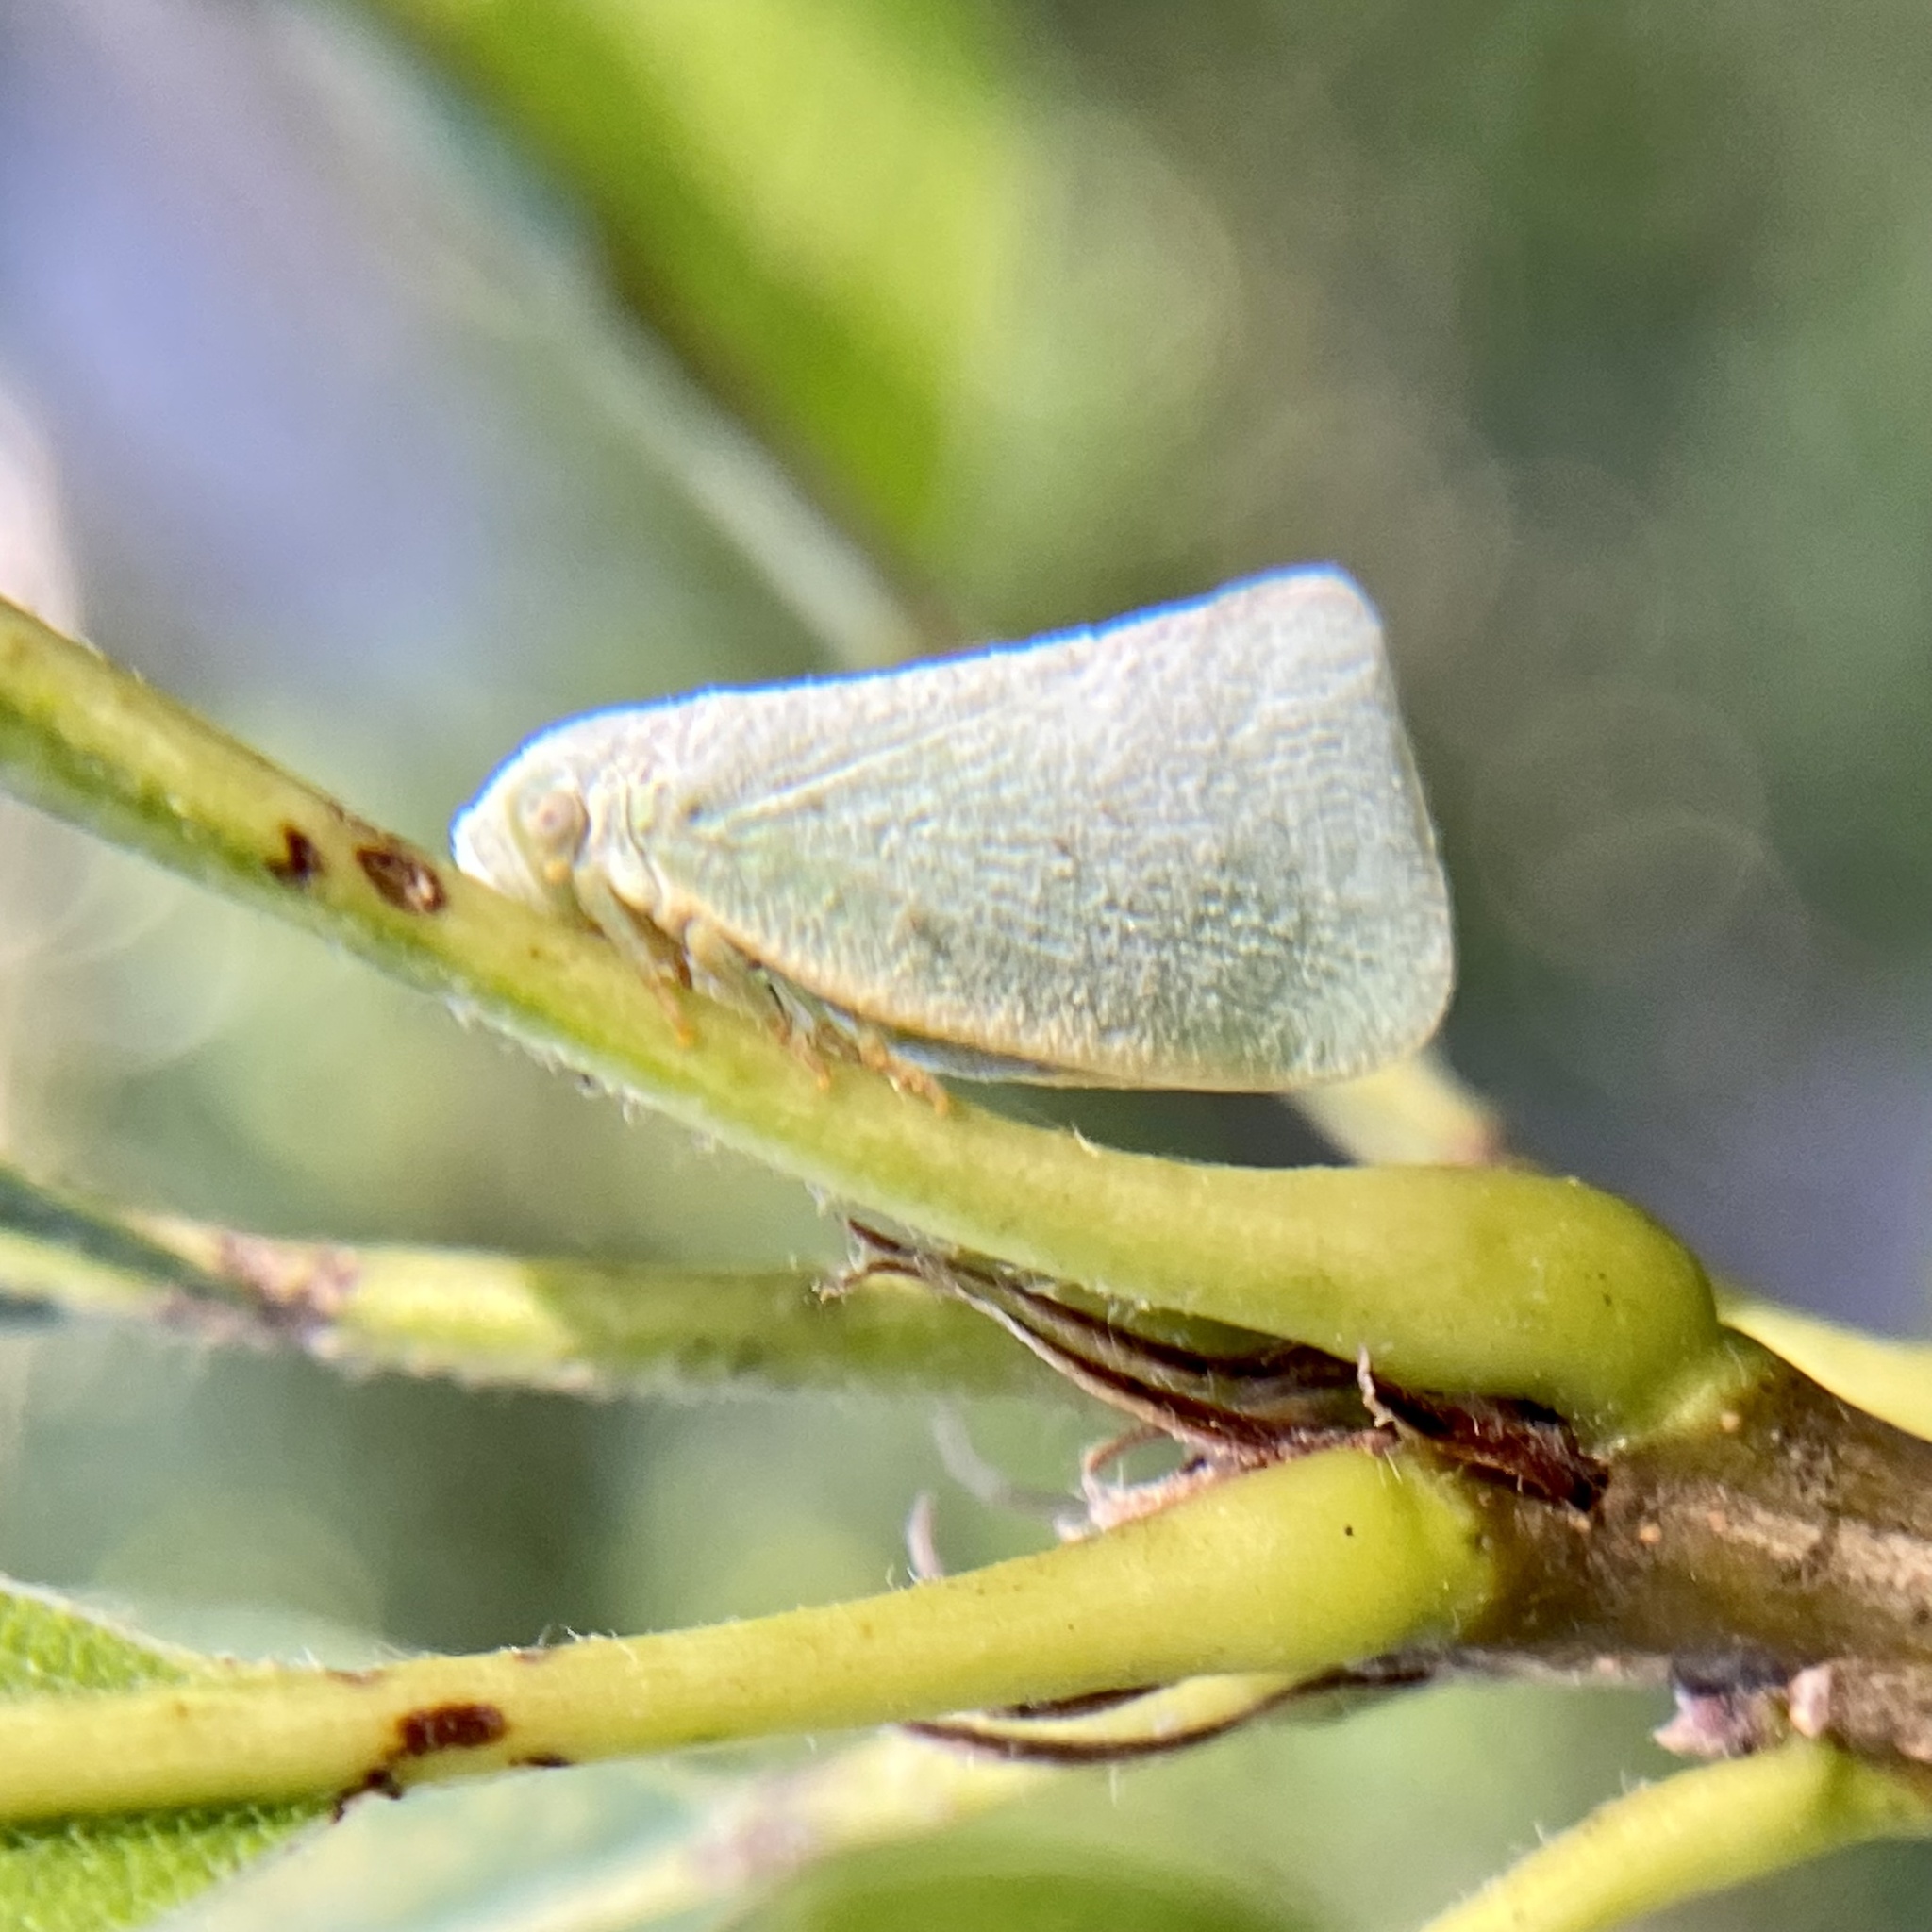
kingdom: Animalia
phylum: Arthropoda
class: Insecta
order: Hemiptera
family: Flatidae
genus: Flatormenis
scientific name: Flatormenis proxima
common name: Northern flatid planthopper
